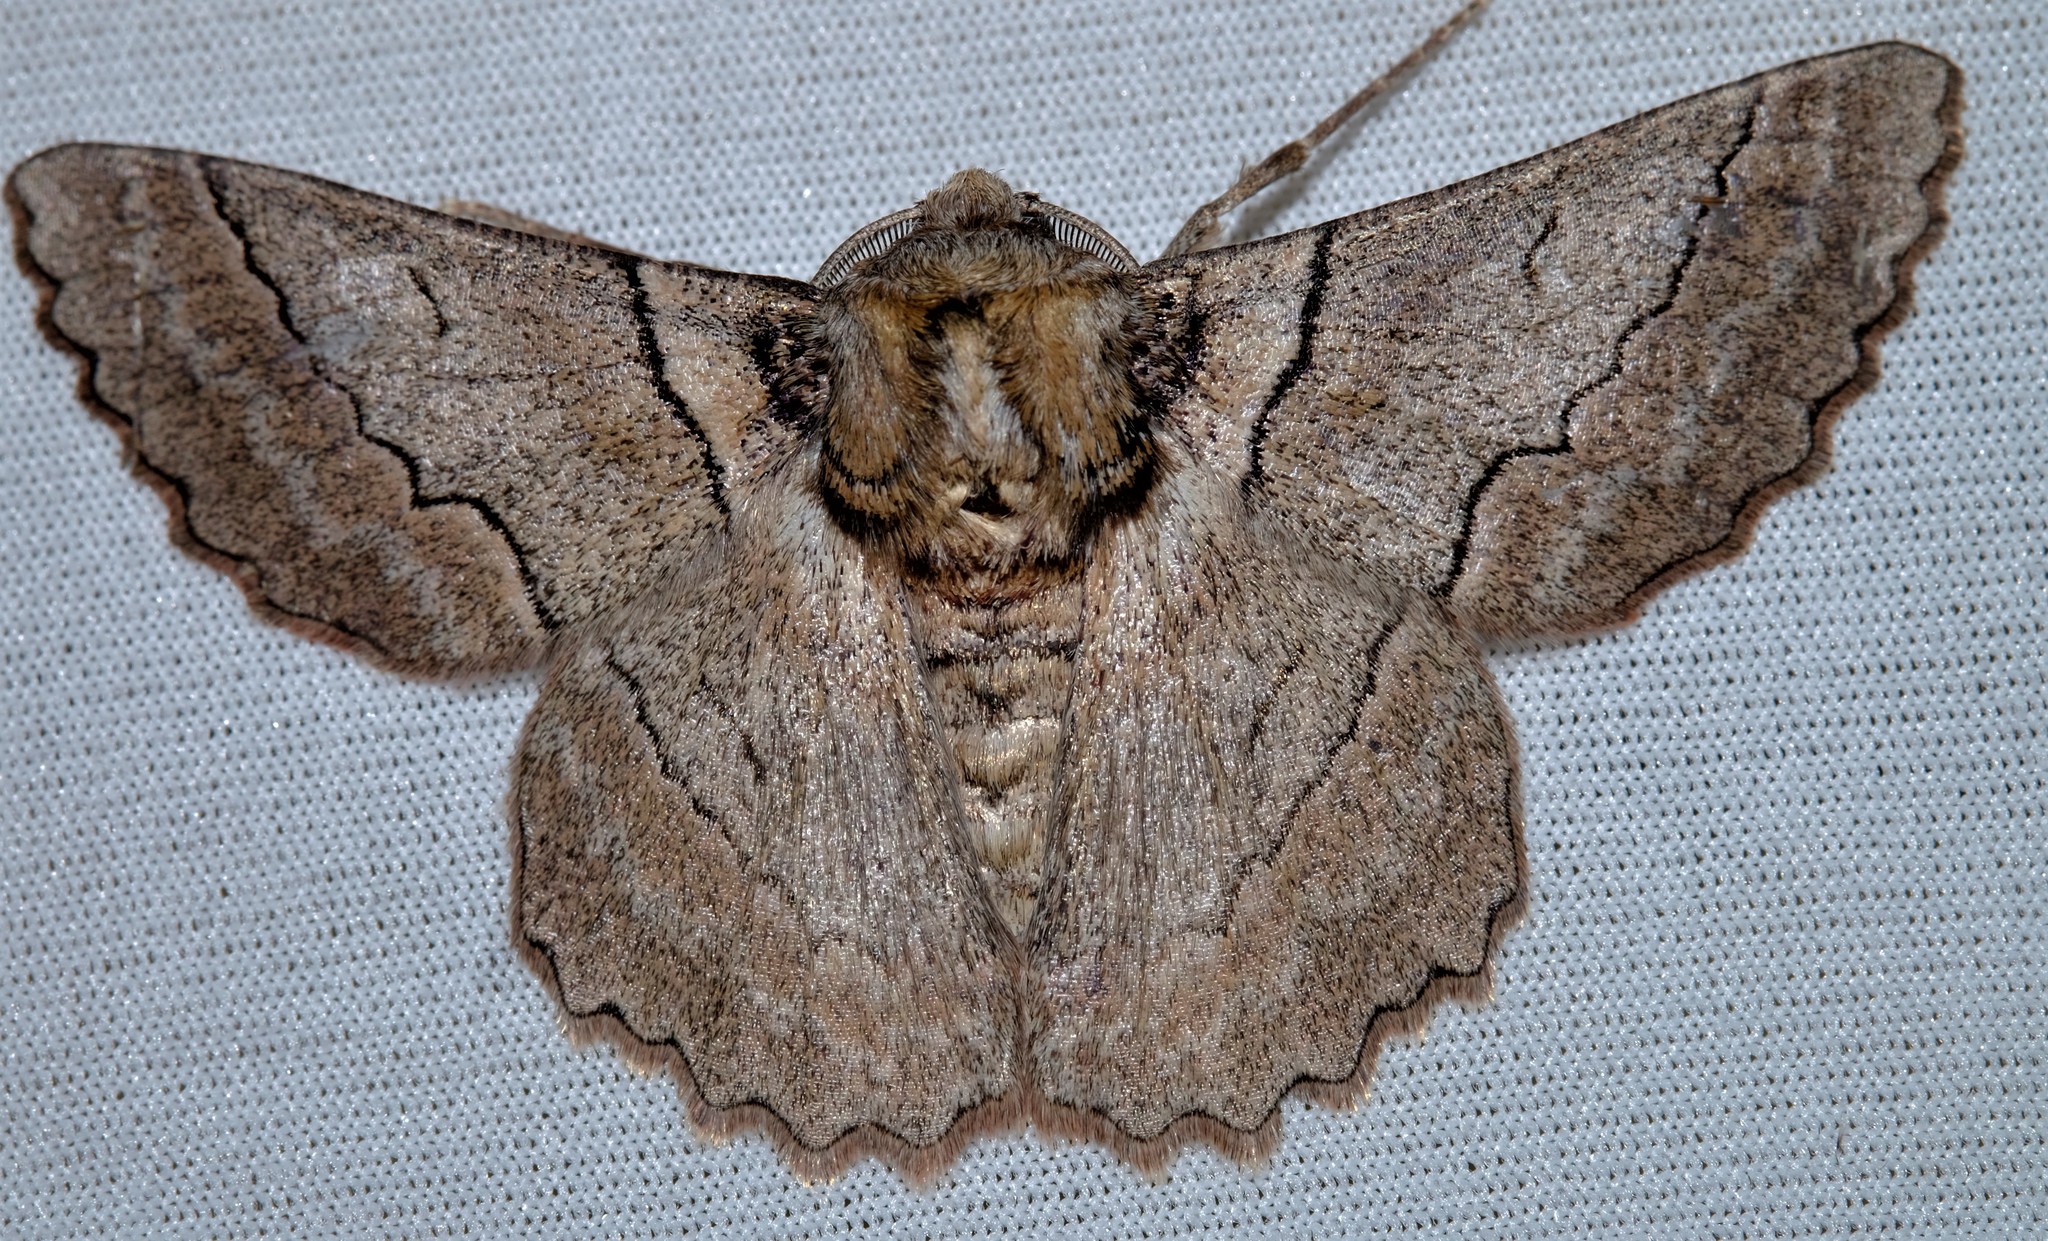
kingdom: Animalia
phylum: Arthropoda
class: Insecta
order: Lepidoptera
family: Geometridae
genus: Hypobapta
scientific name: Hypobapta tachyhalotaria
